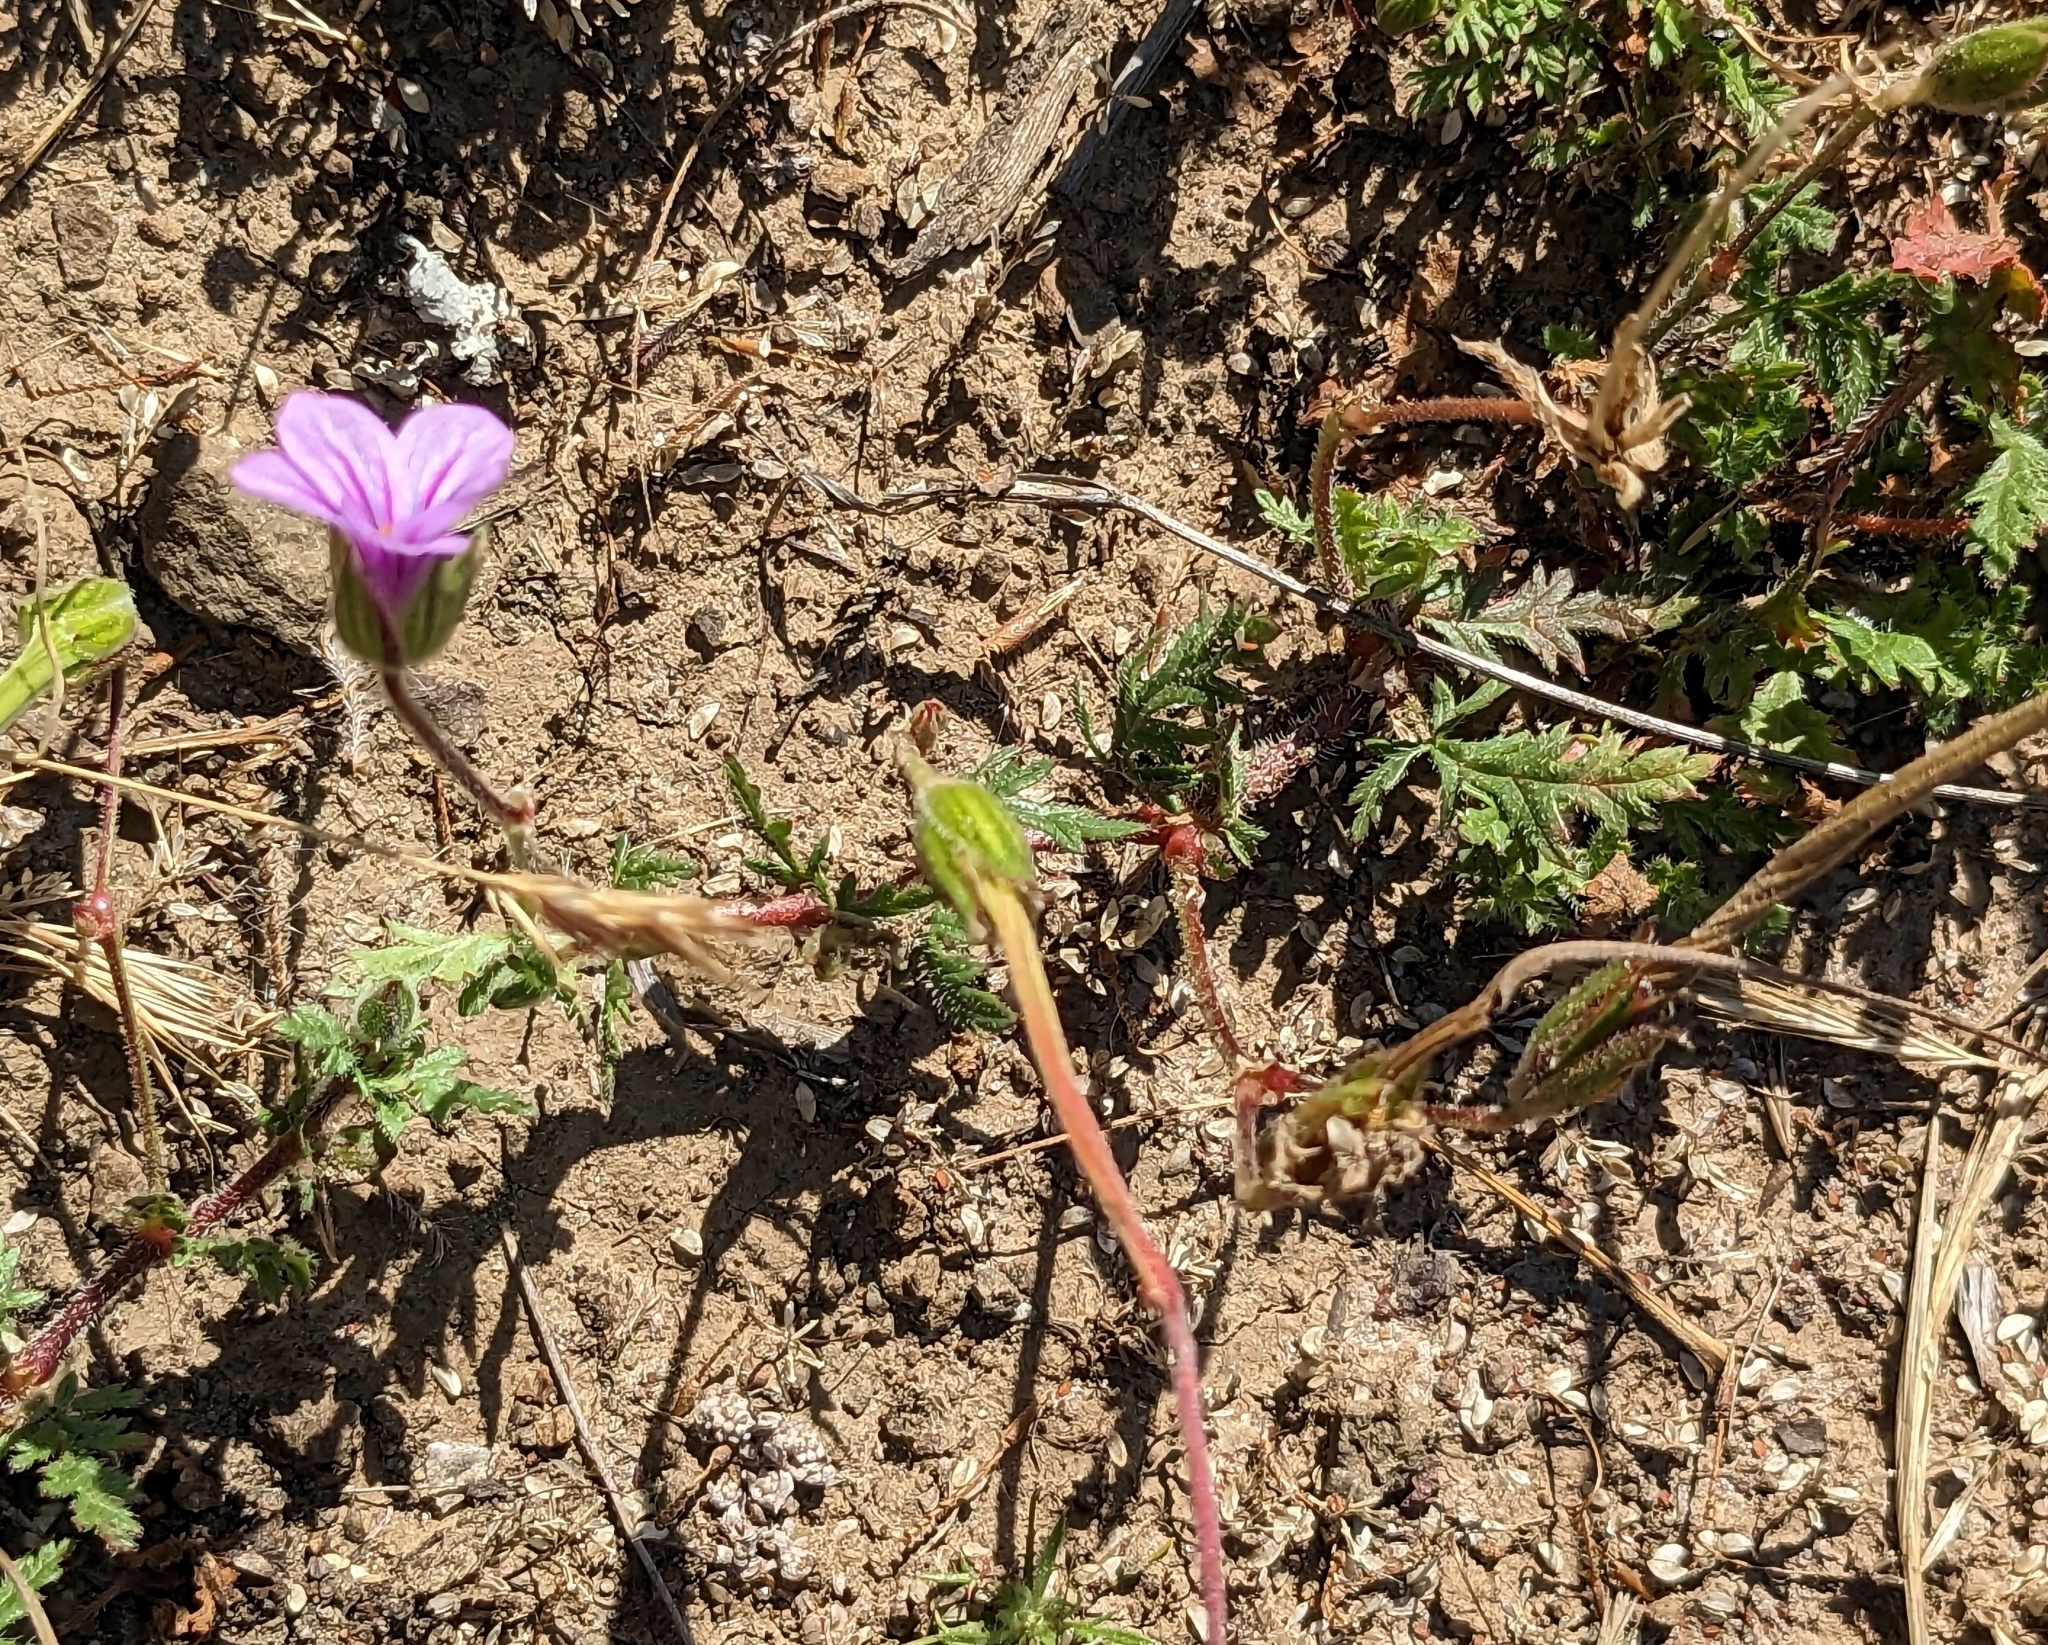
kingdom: Plantae
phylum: Tracheophyta
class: Magnoliopsida
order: Geraniales
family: Geraniaceae
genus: Erodium
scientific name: Erodium botrys
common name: Mediterranean stork's-bill
